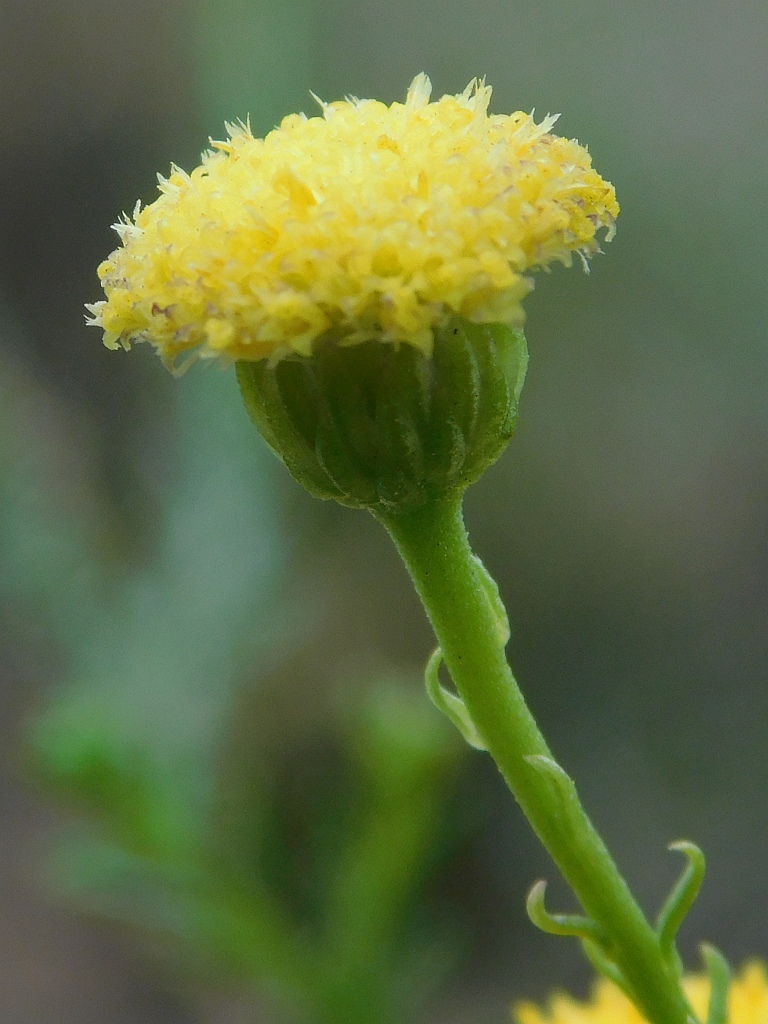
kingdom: Plantae
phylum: Tracheophyta
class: Magnoliopsida
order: Asterales
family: Asteraceae
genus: Chrysocoma
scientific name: Chrysocoma ciliata
